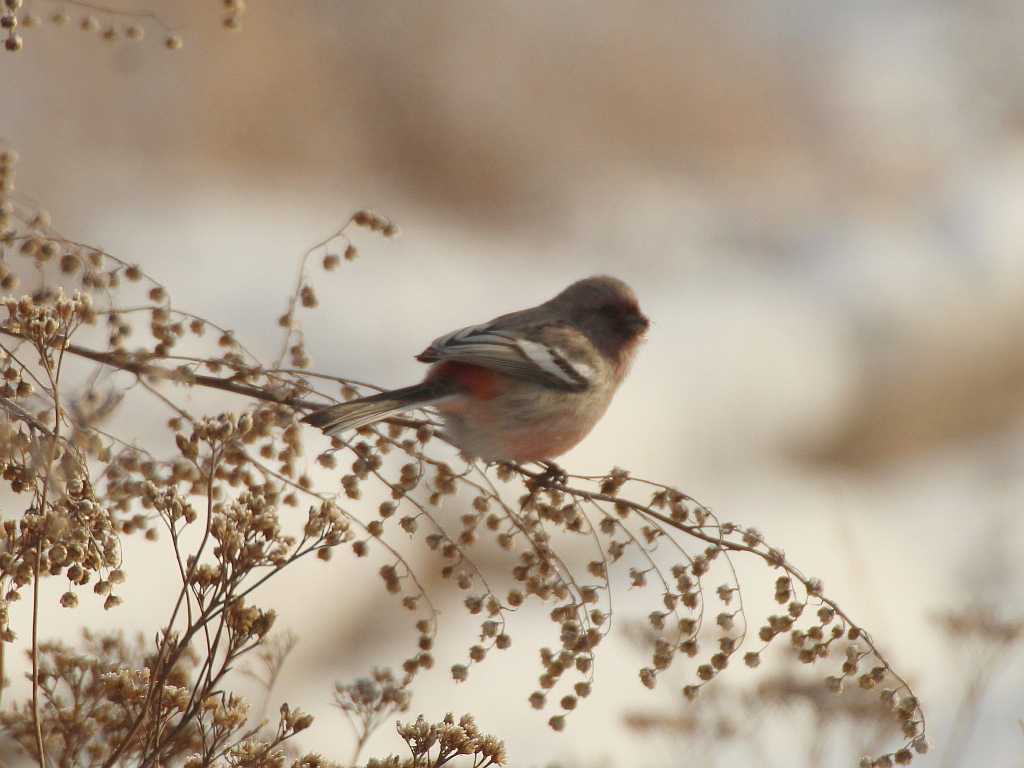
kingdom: Animalia
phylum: Chordata
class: Aves
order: Passeriformes
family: Fringillidae
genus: Carpodacus
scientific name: Carpodacus sibiricus
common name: Long-tailed rosefinch
